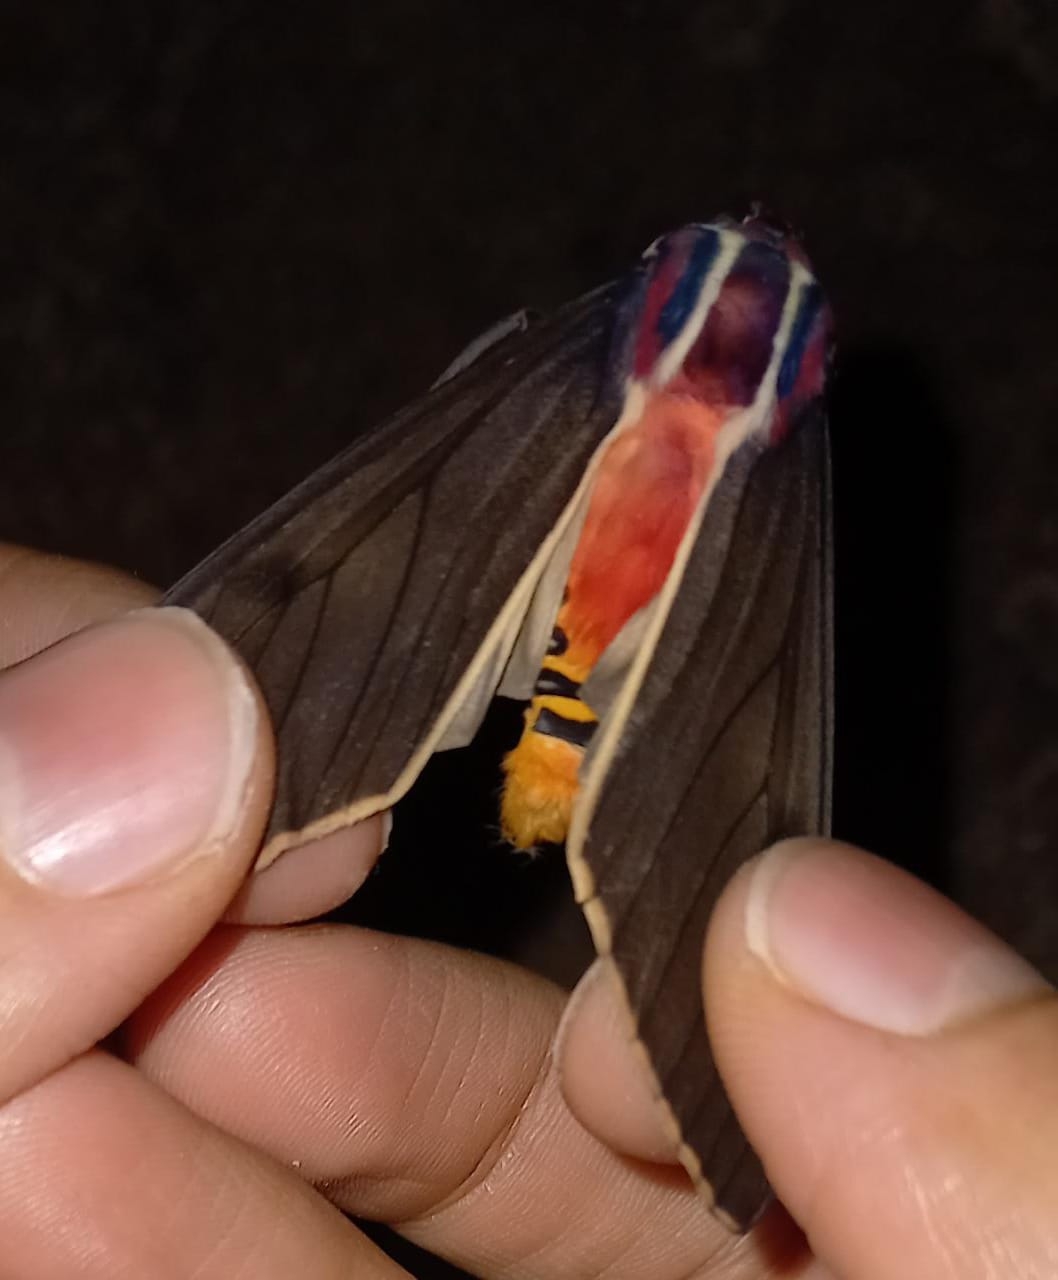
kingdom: Animalia
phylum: Arthropoda
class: Insecta
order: Lepidoptera
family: Erebidae
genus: Amastus
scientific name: Amastus episcotosia
